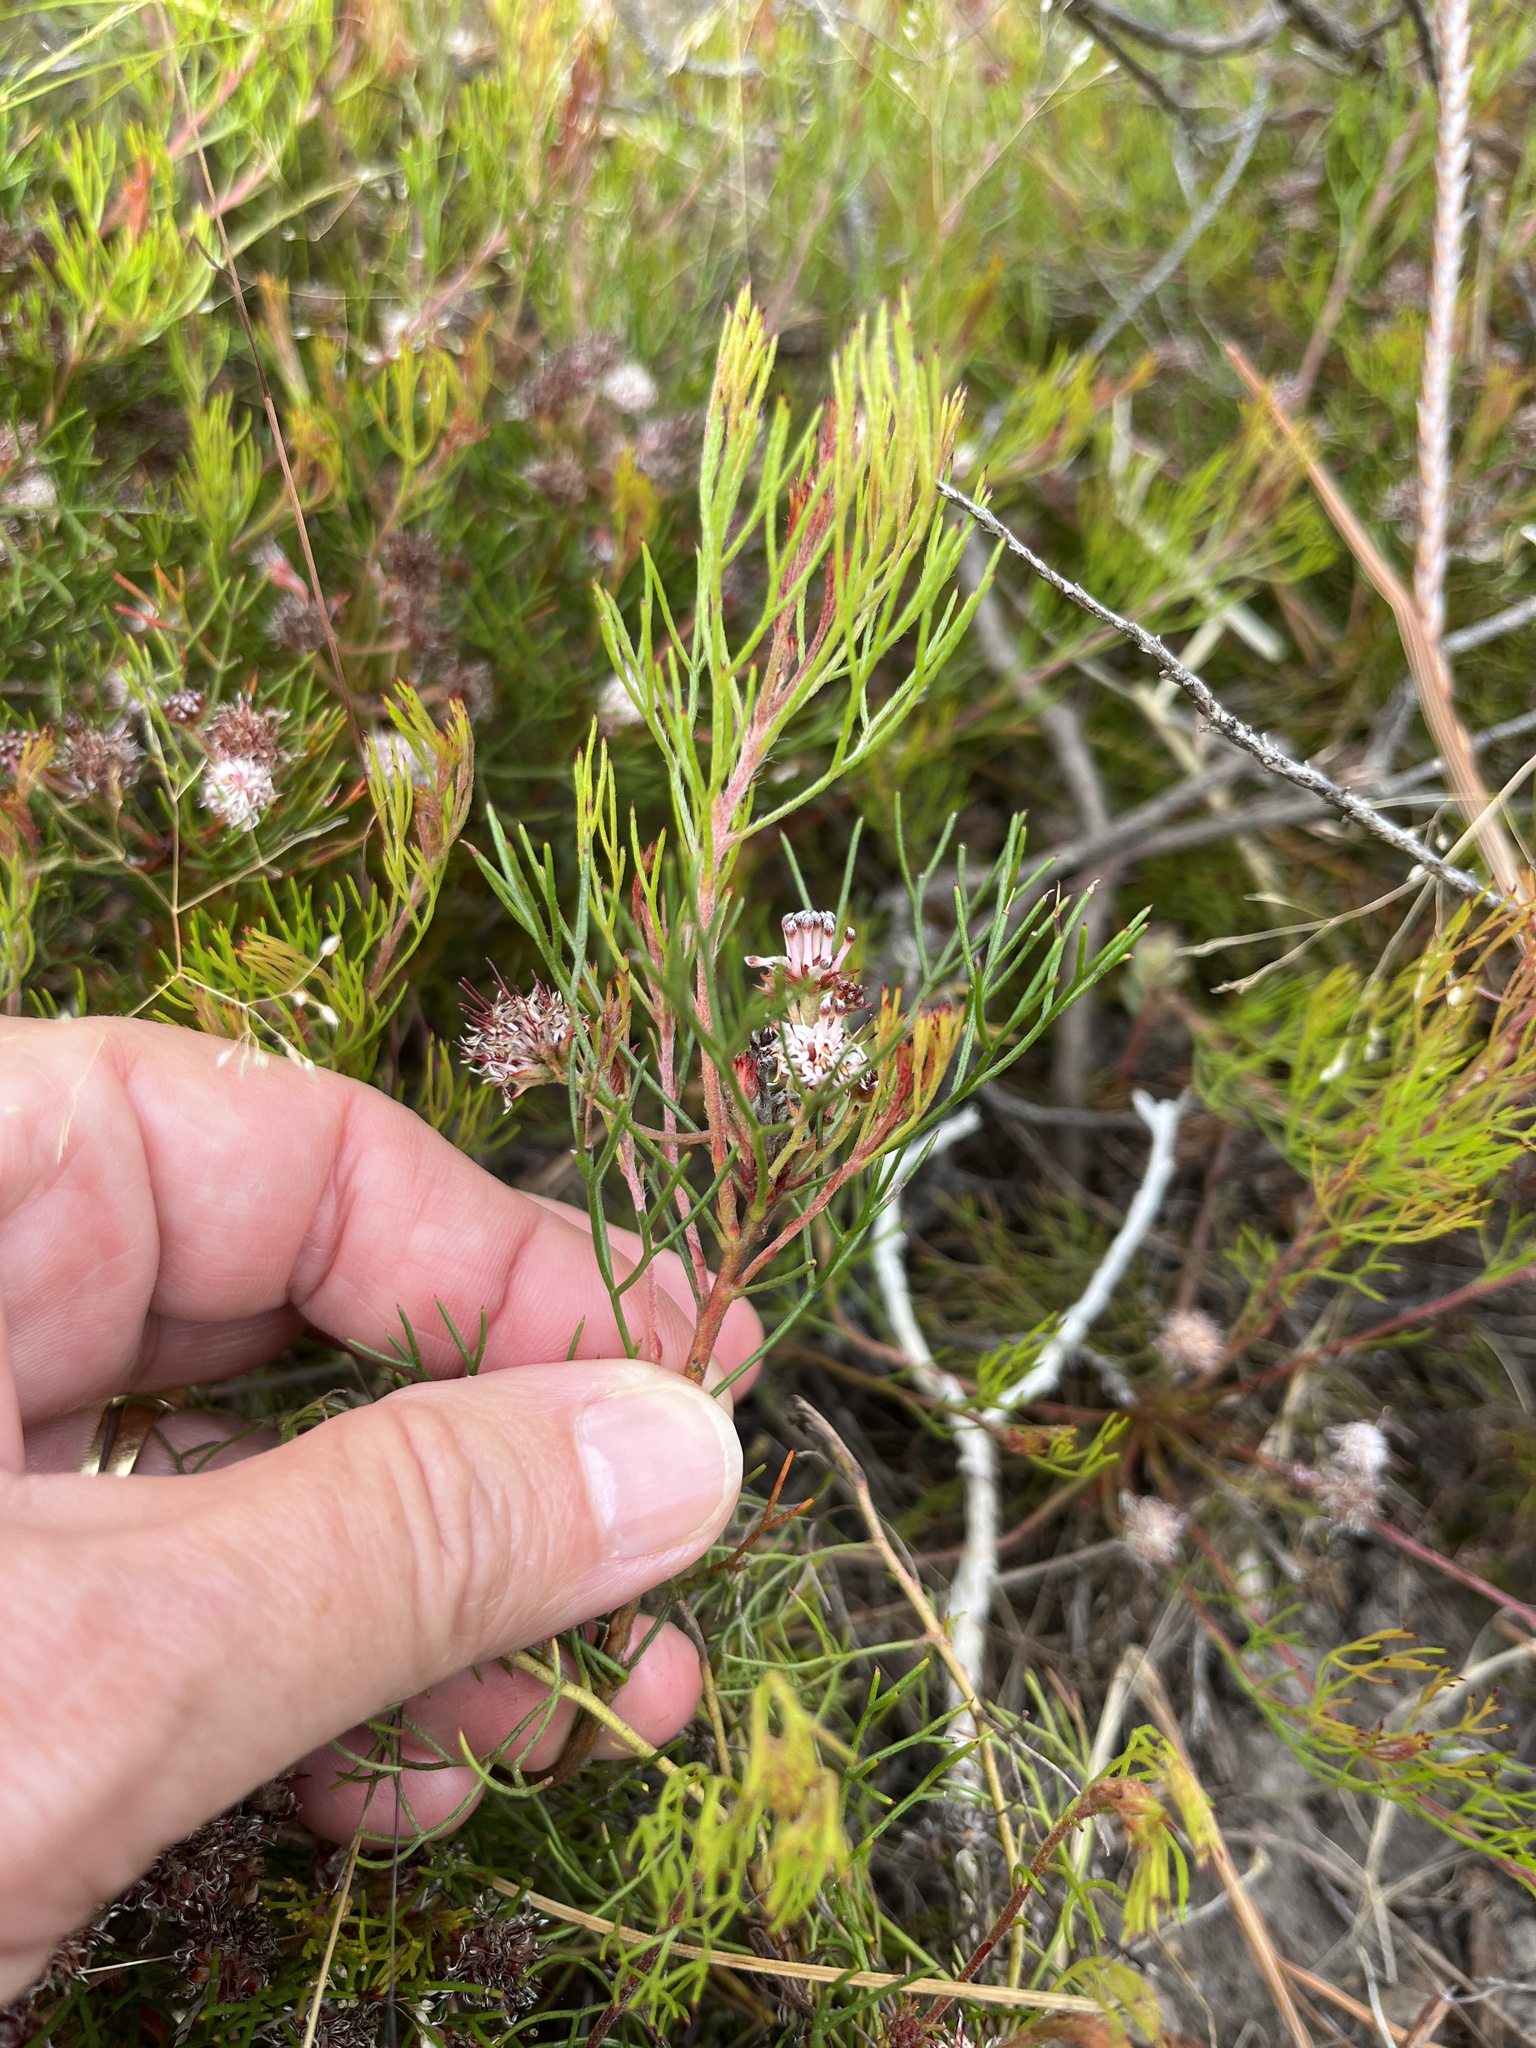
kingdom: Plantae
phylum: Tracheophyta
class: Magnoliopsida
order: Proteales
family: Proteaceae
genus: Serruria
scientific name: Serruria fasciflora
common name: Common pin spiderhead
